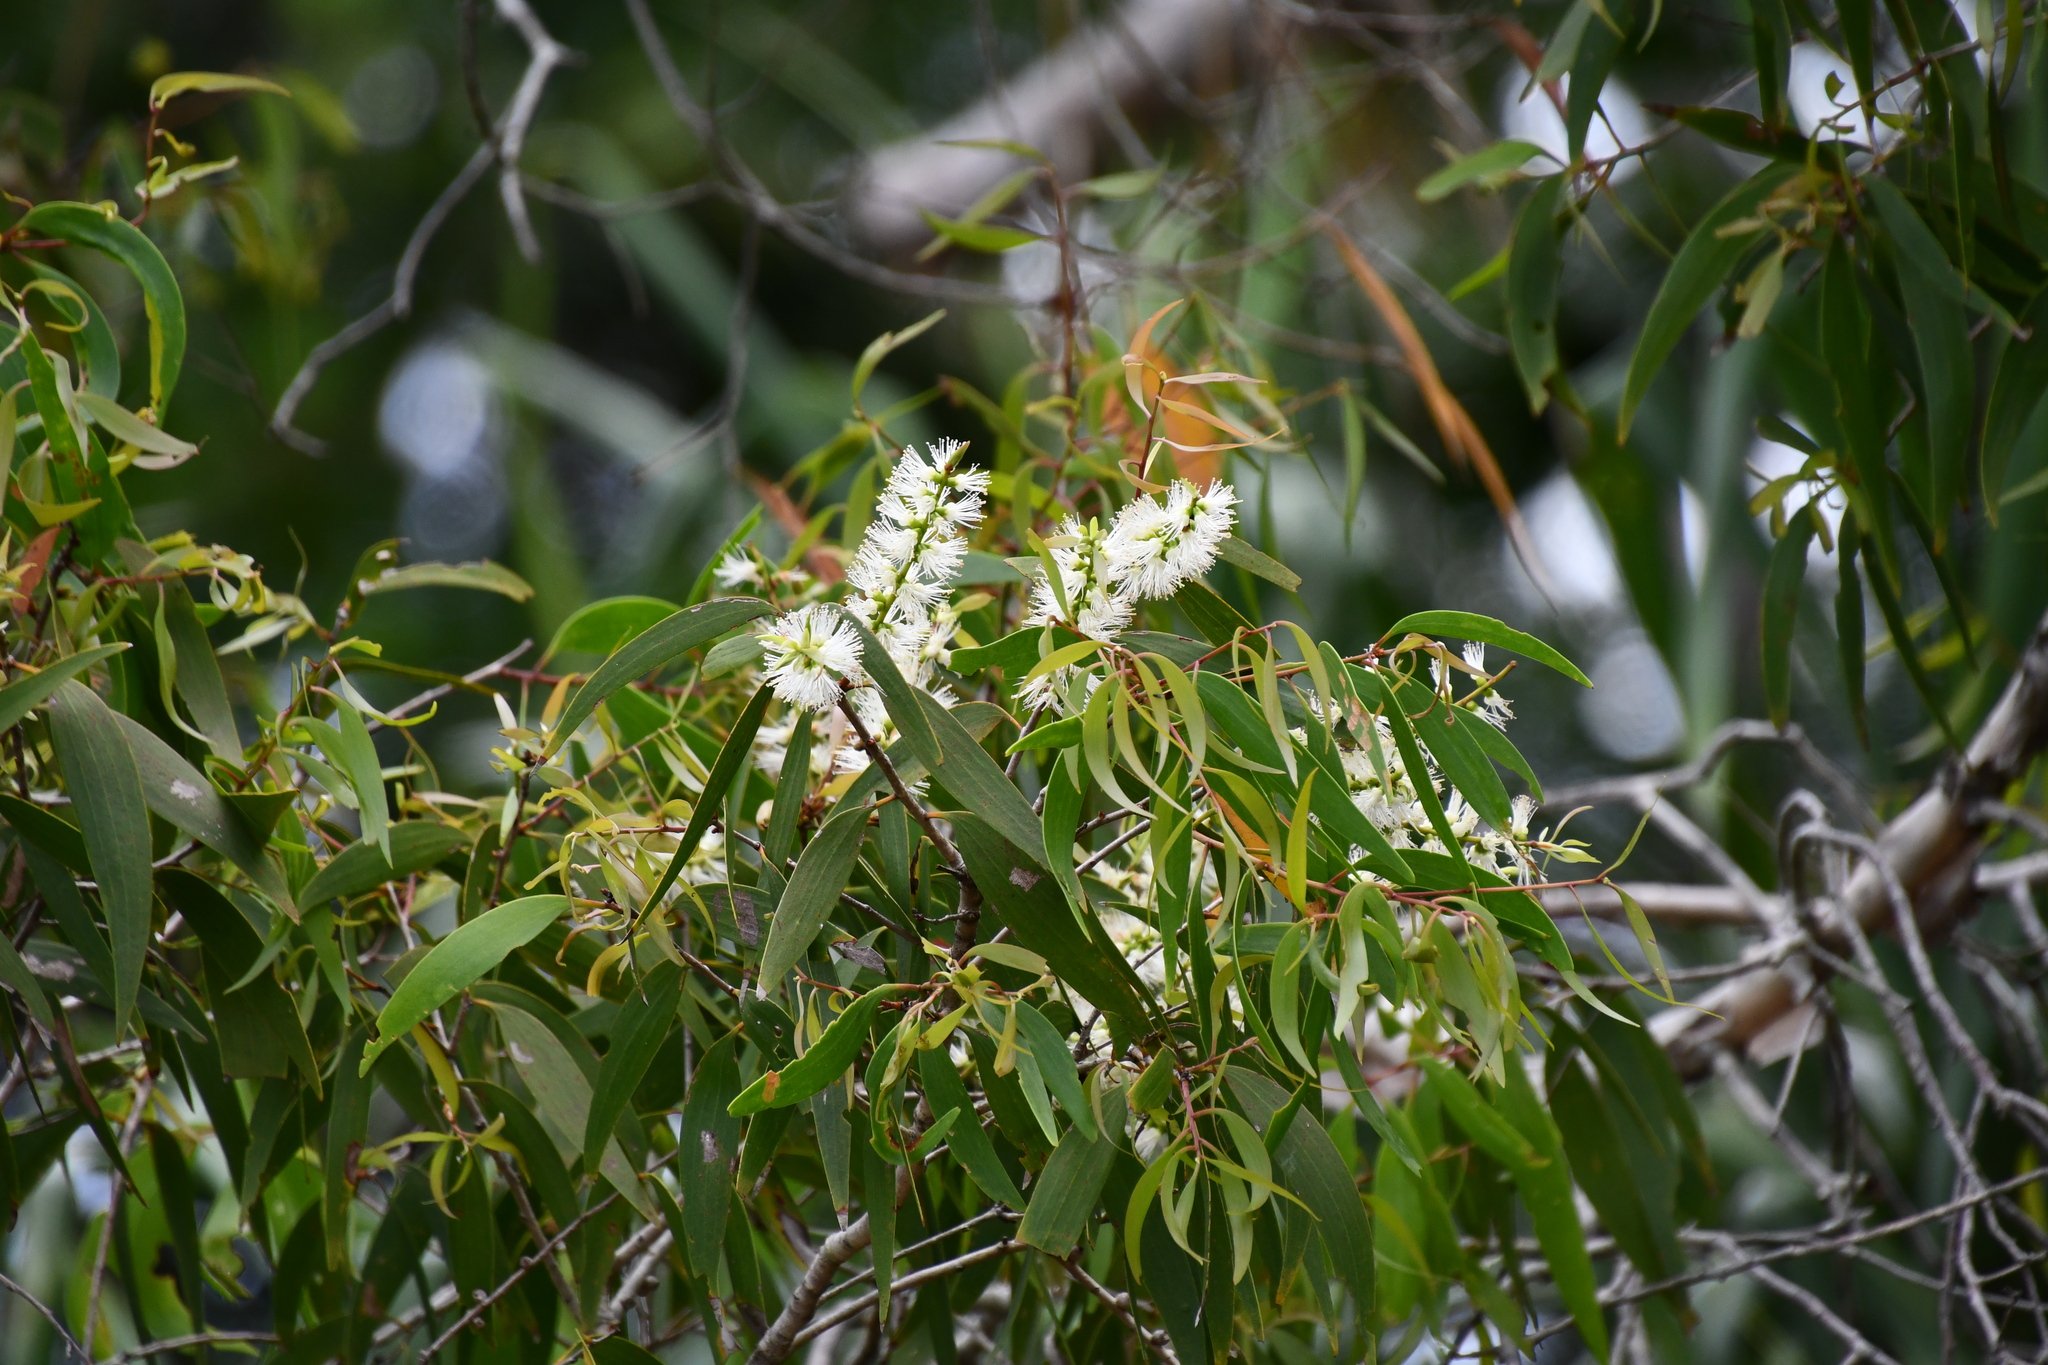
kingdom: Plantae
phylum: Tracheophyta
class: Magnoliopsida
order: Myrtales
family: Myrtaceae
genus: Melaleuca
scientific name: Melaleuca leucadendra
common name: Weeping paperbark
